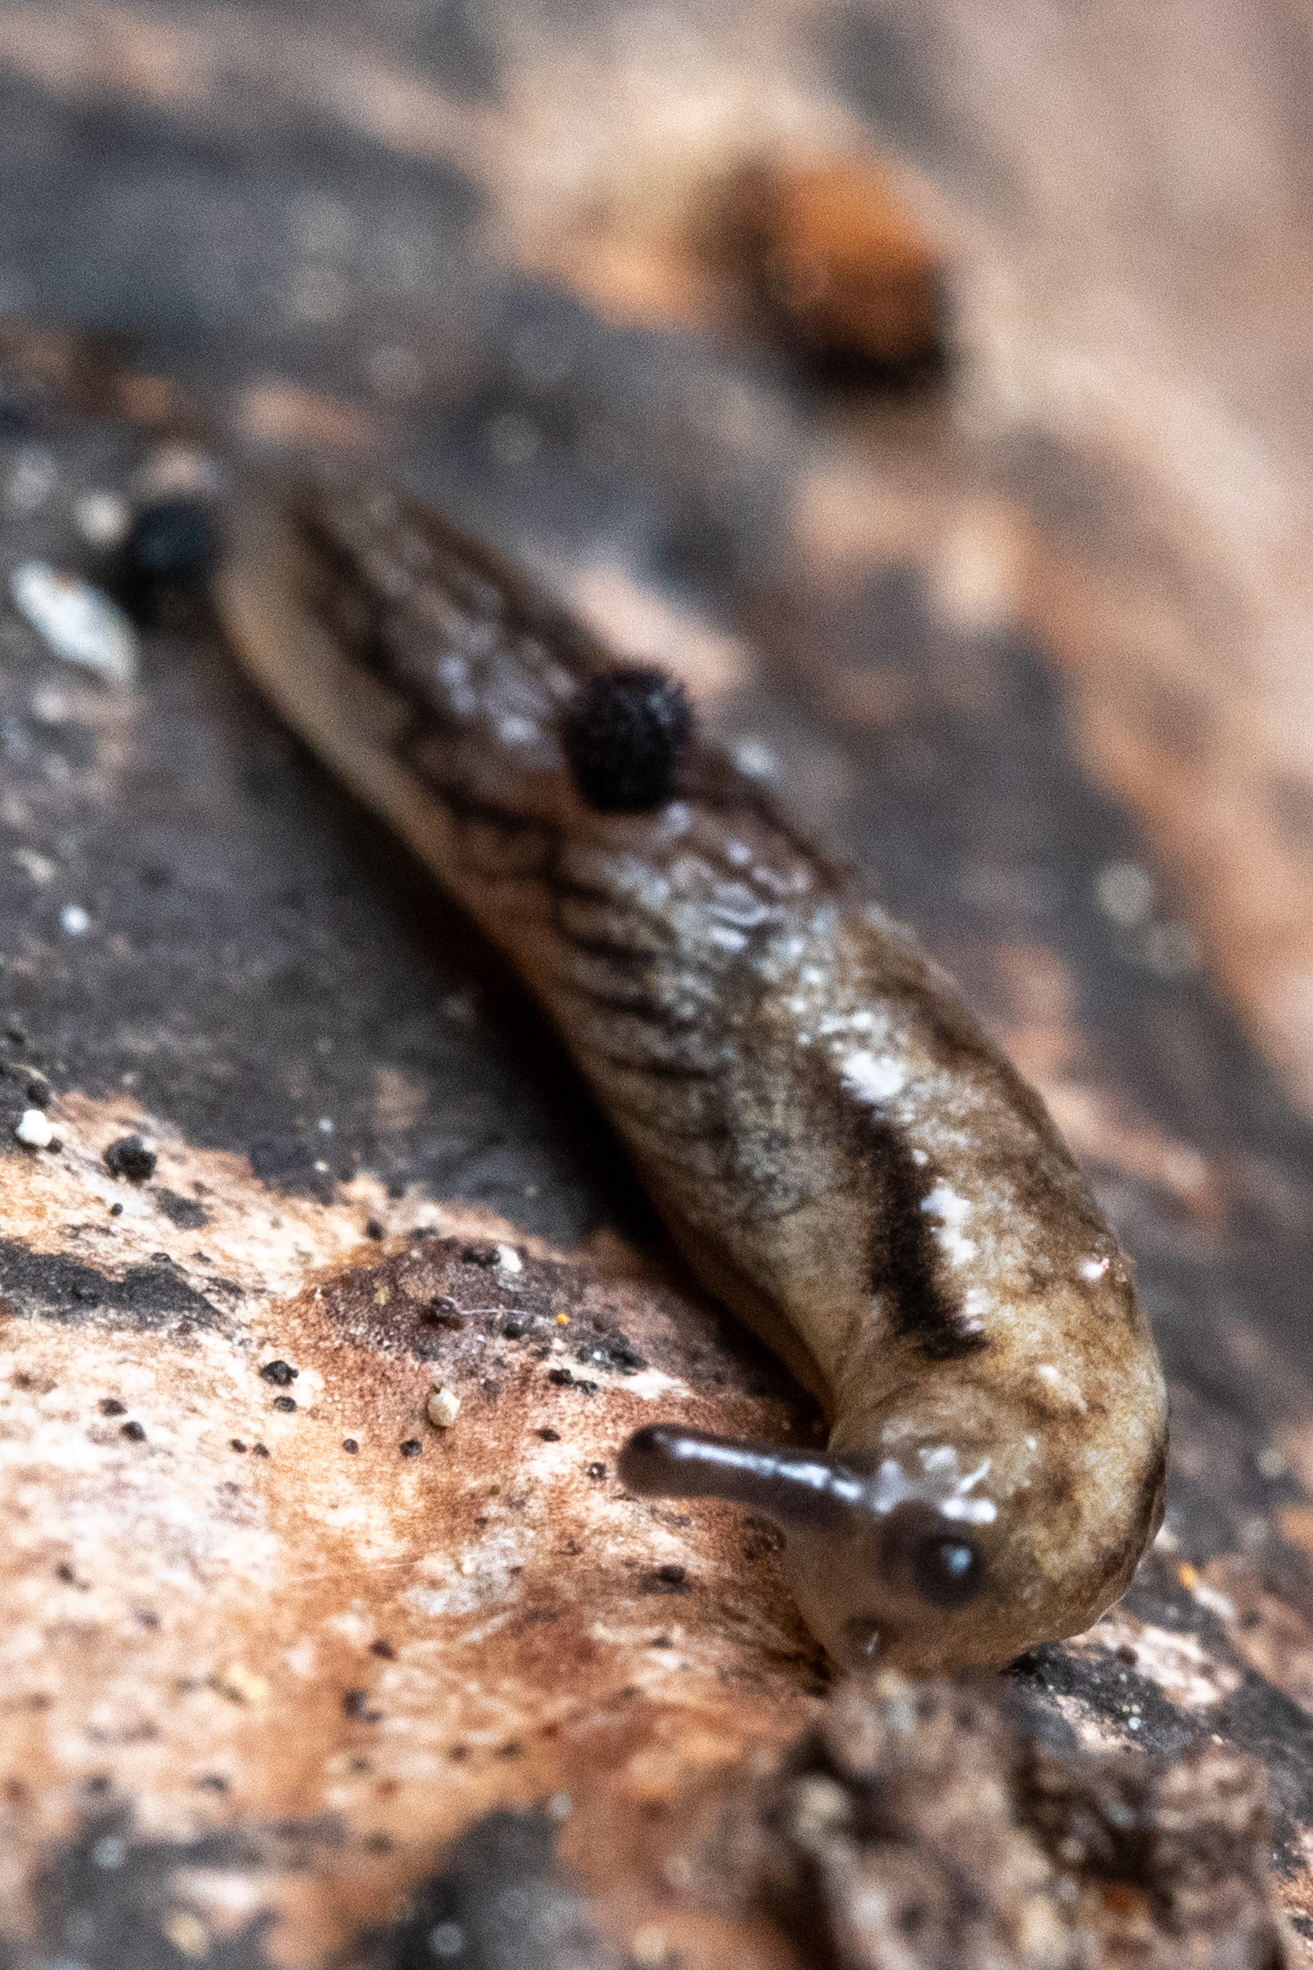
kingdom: Animalia
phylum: Mollusca
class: Gastropoda
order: Stylommatophora
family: Ariolimacidae
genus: Prophysaon
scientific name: Prophysaon vanattae
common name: Scarletback taildropper
